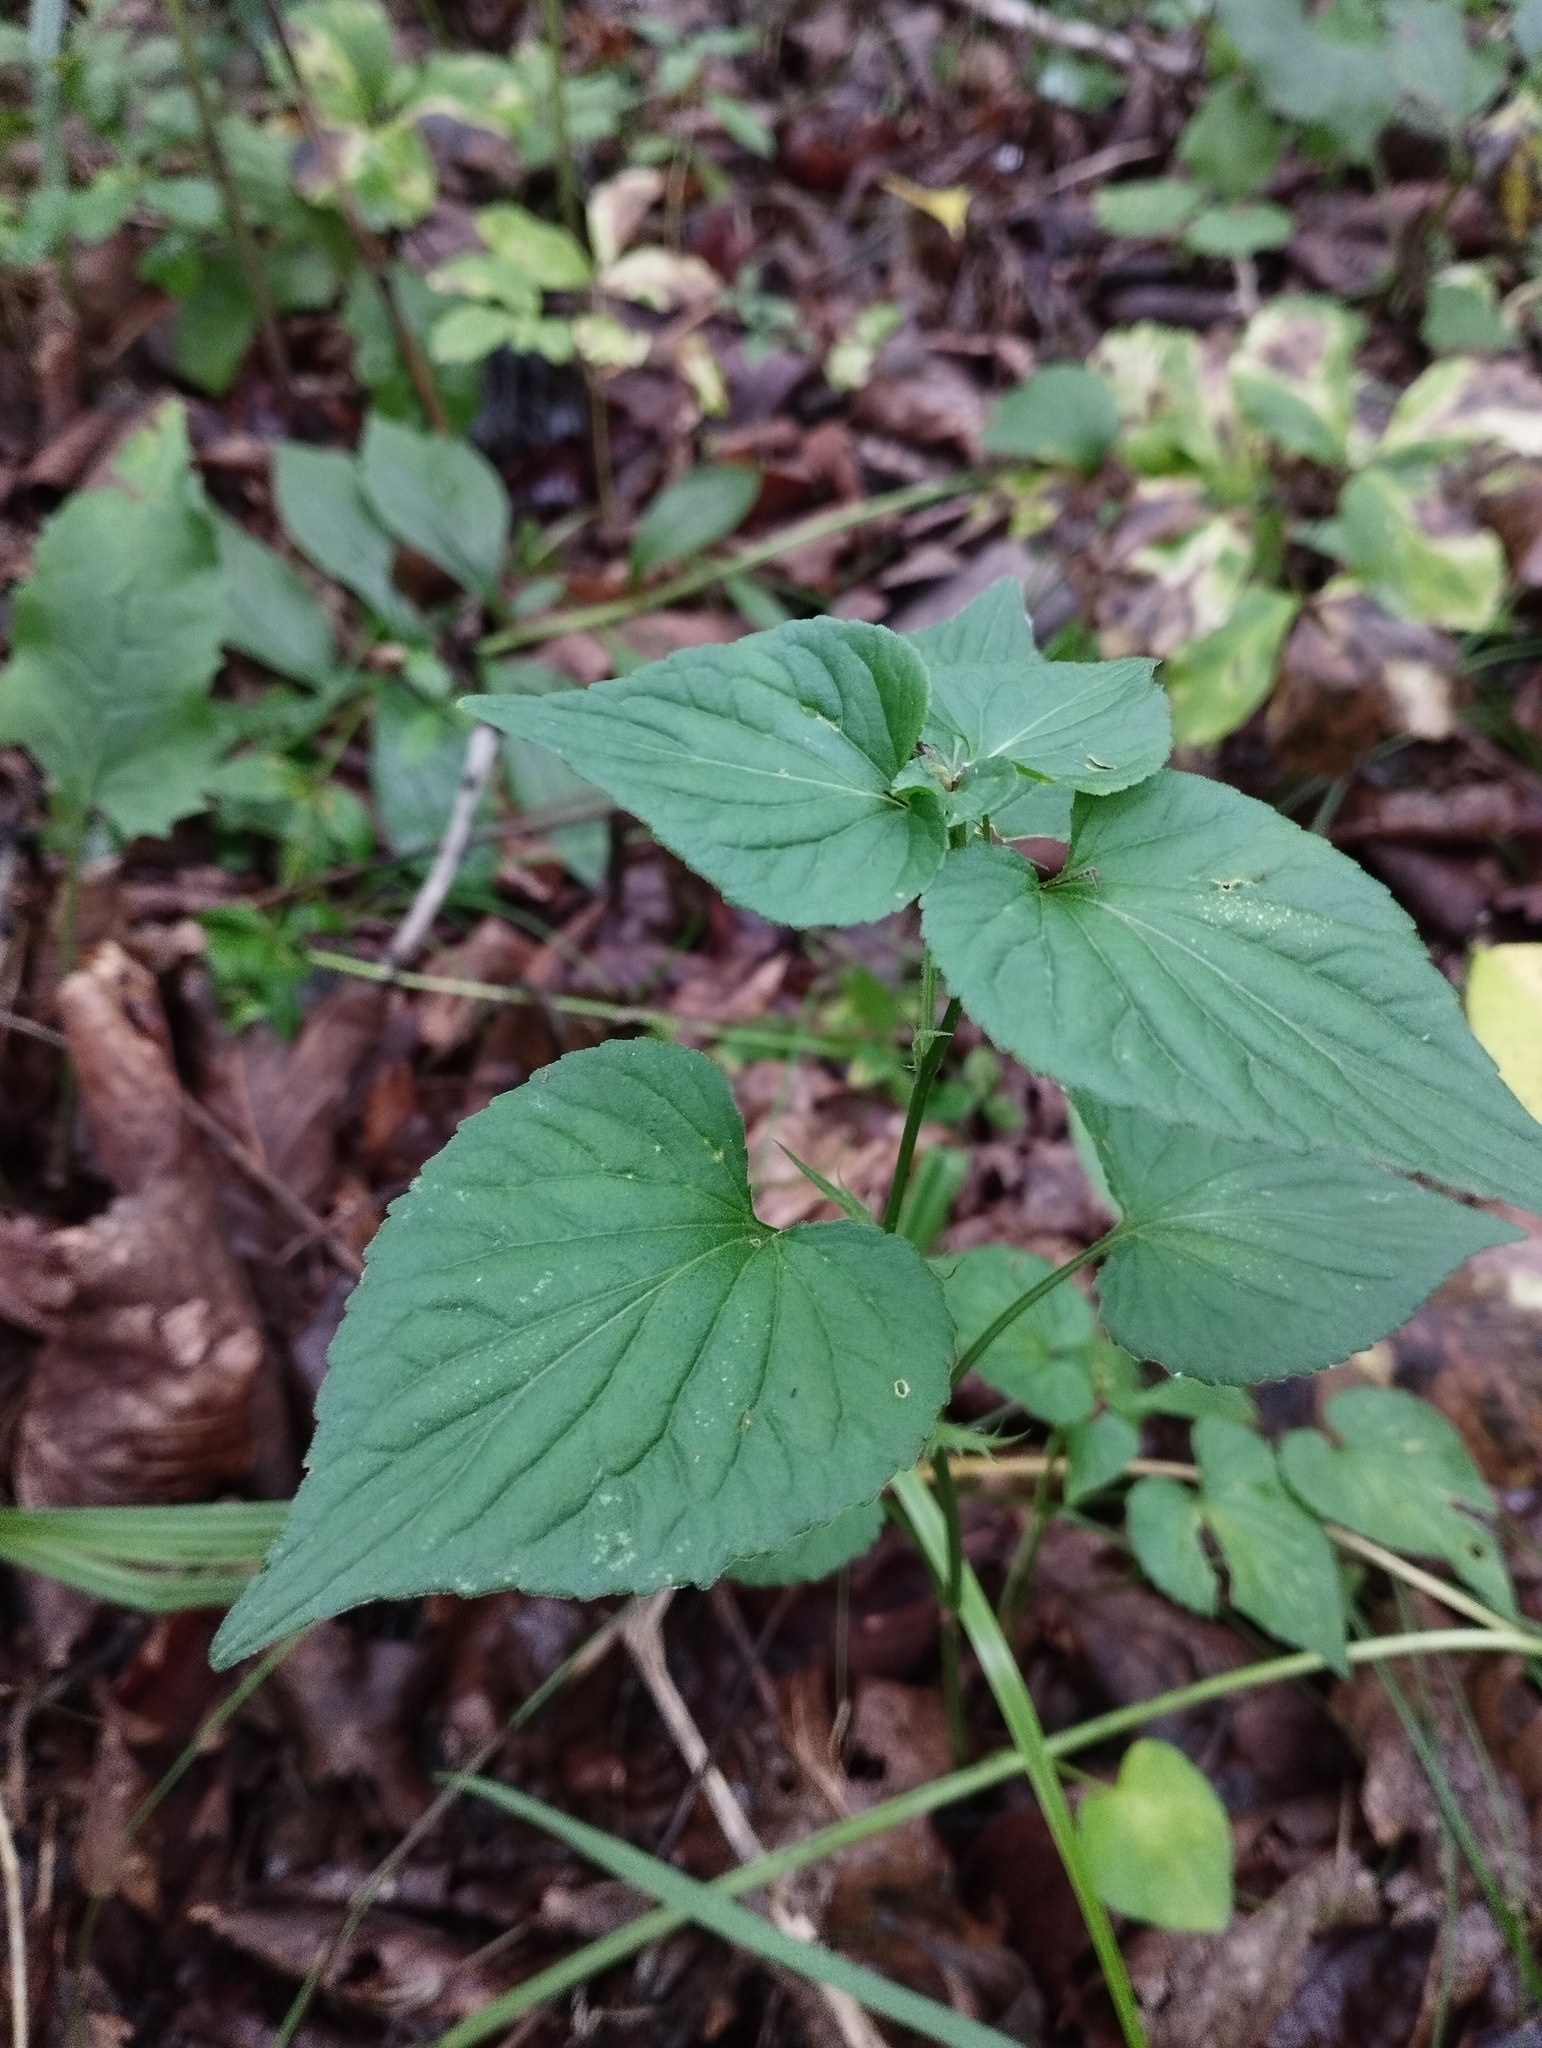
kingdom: Plantae
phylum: Tracheophyta
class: Magnoliopsida
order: Malpighiales
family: Violaceae
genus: Viola
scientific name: Viola acuminata
